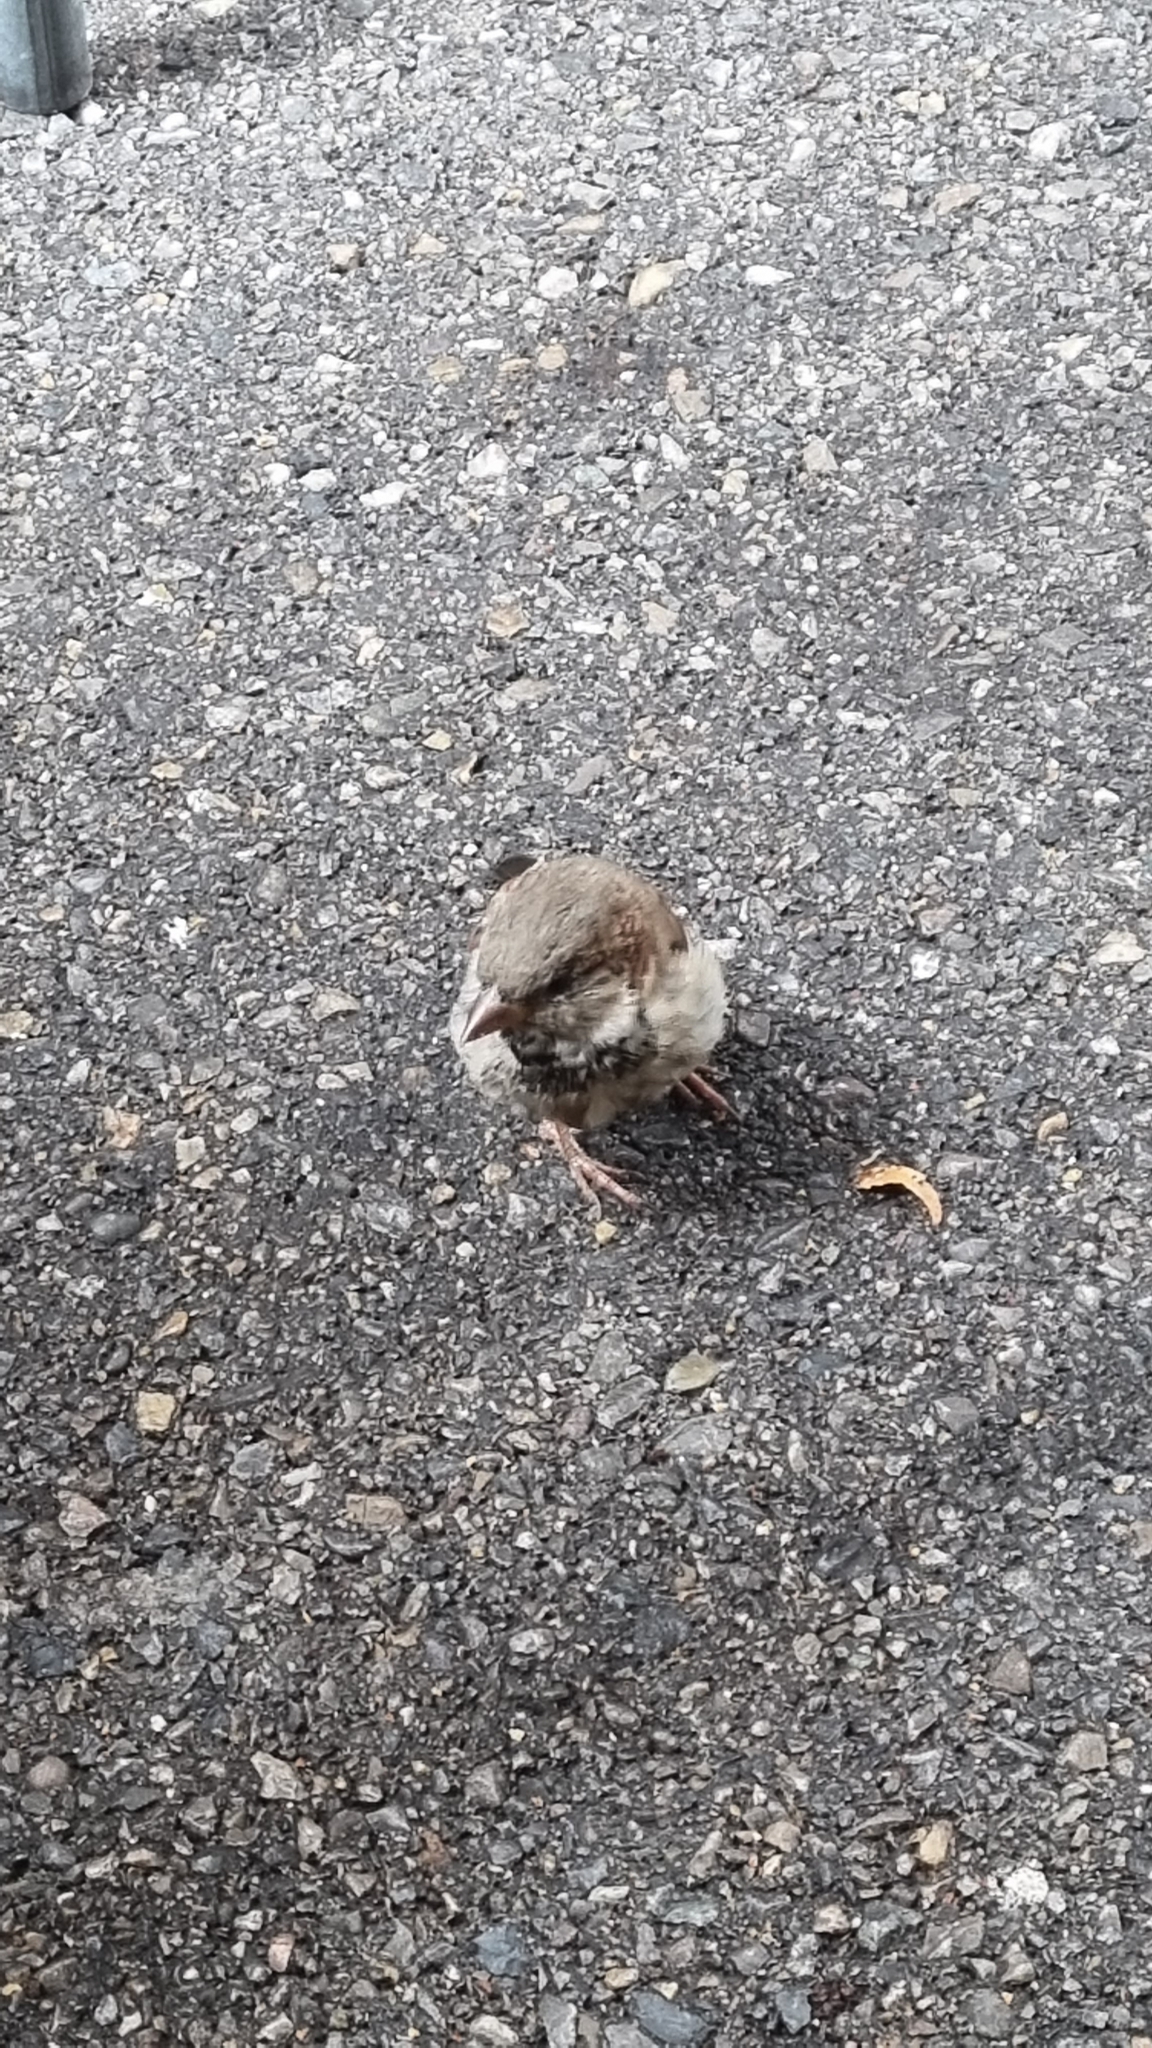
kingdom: Animalia
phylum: Chordata
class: Aves
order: Passeriformes
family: Passeridae
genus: Passer
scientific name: Passer domesticus
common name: House sparrow
